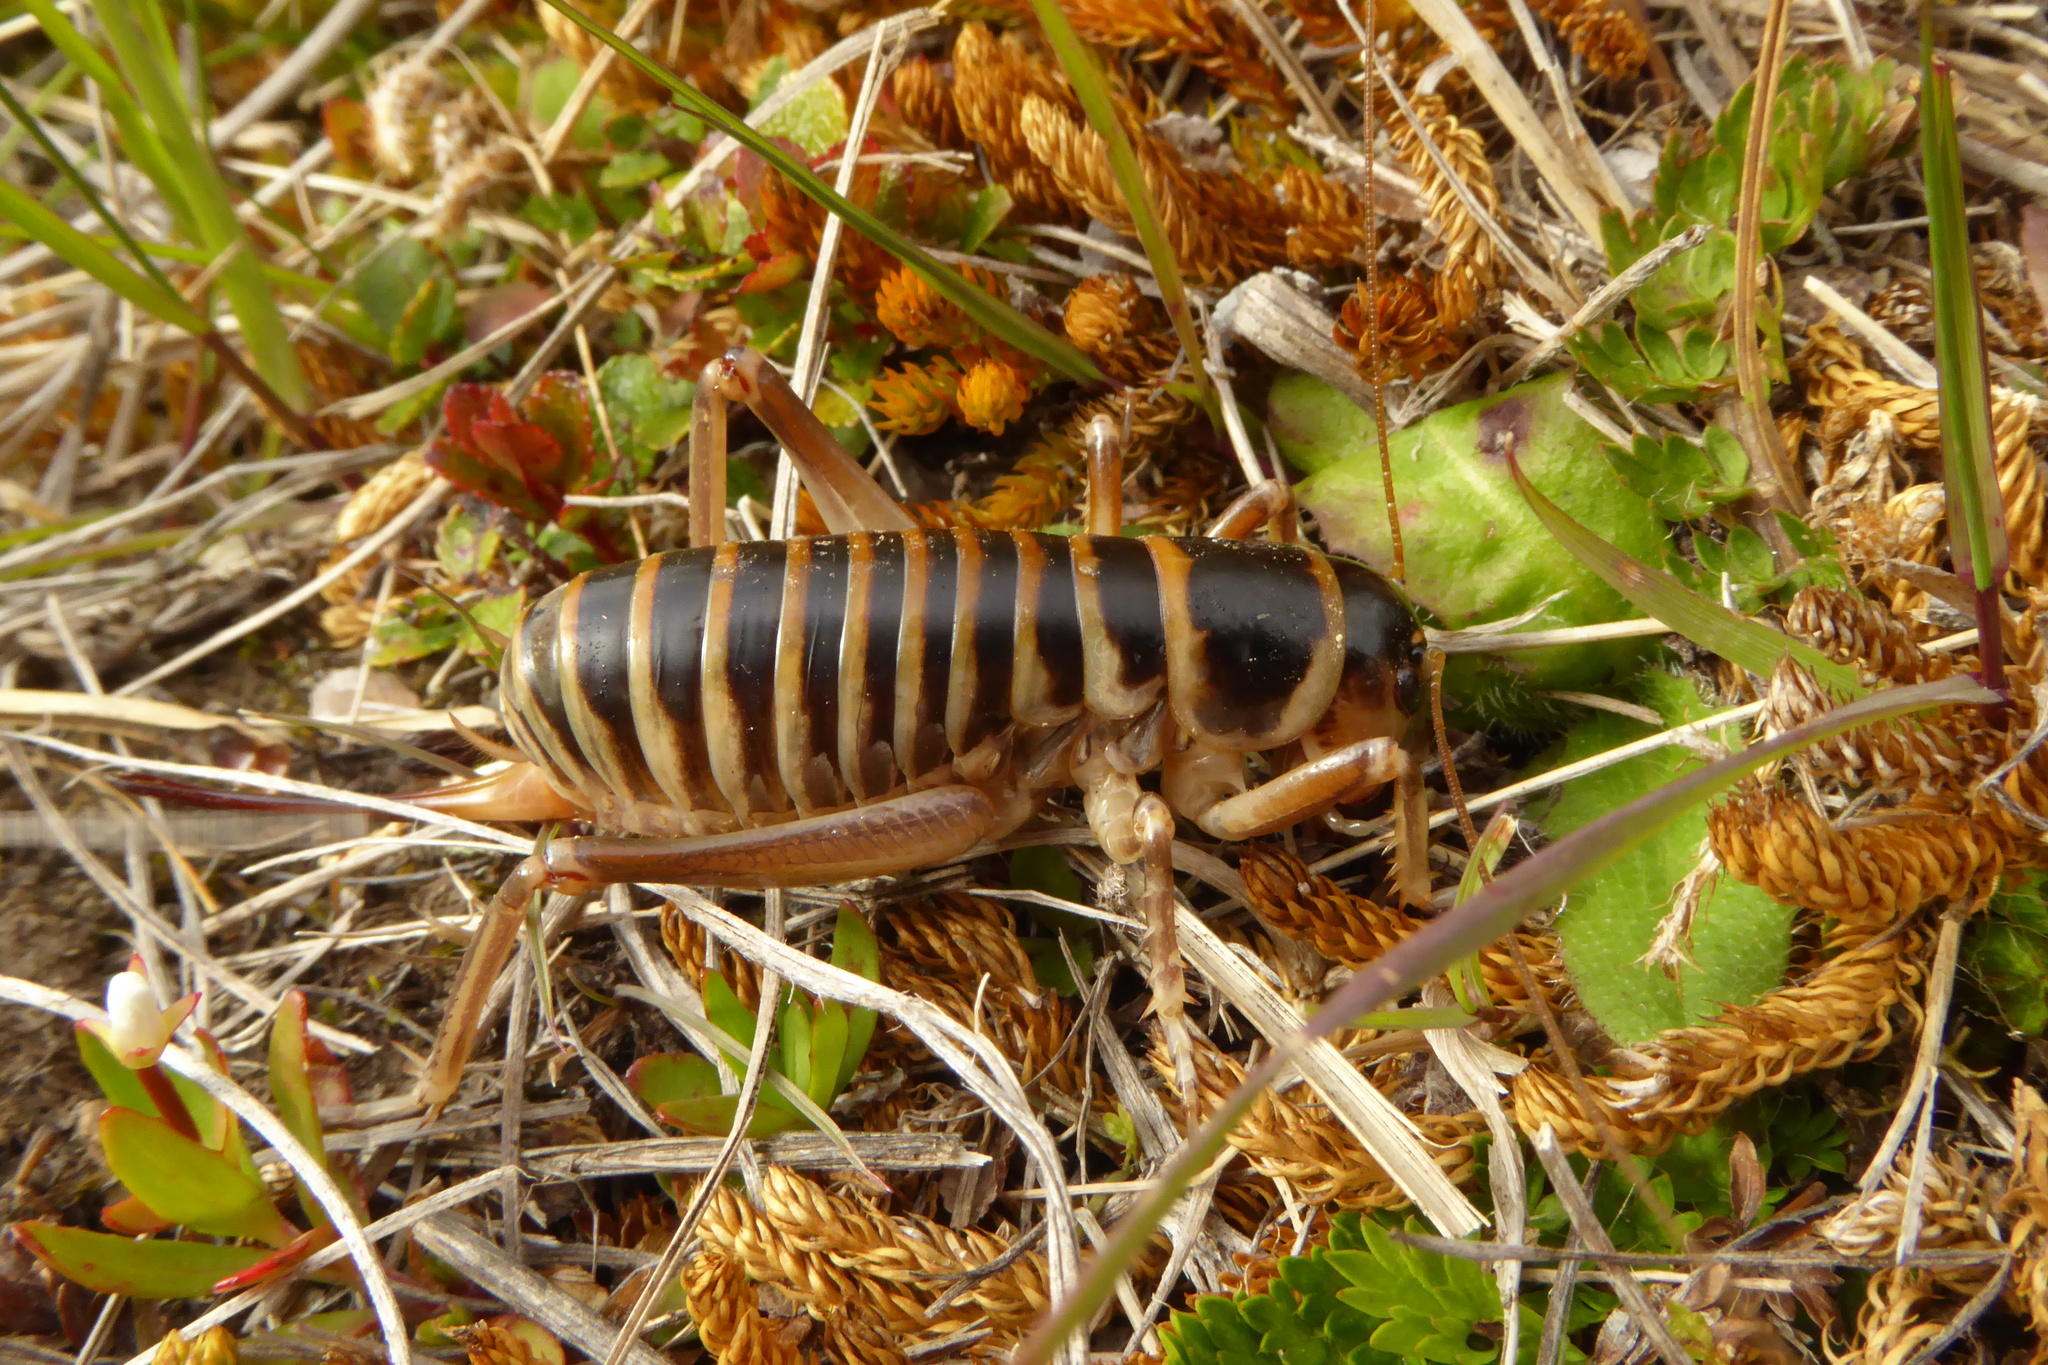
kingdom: Animalia
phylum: Arthropoda
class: Insecta
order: Orthoptera
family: Anostostomatidae
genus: Hemiandrus
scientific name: Hemiandrus focalis
